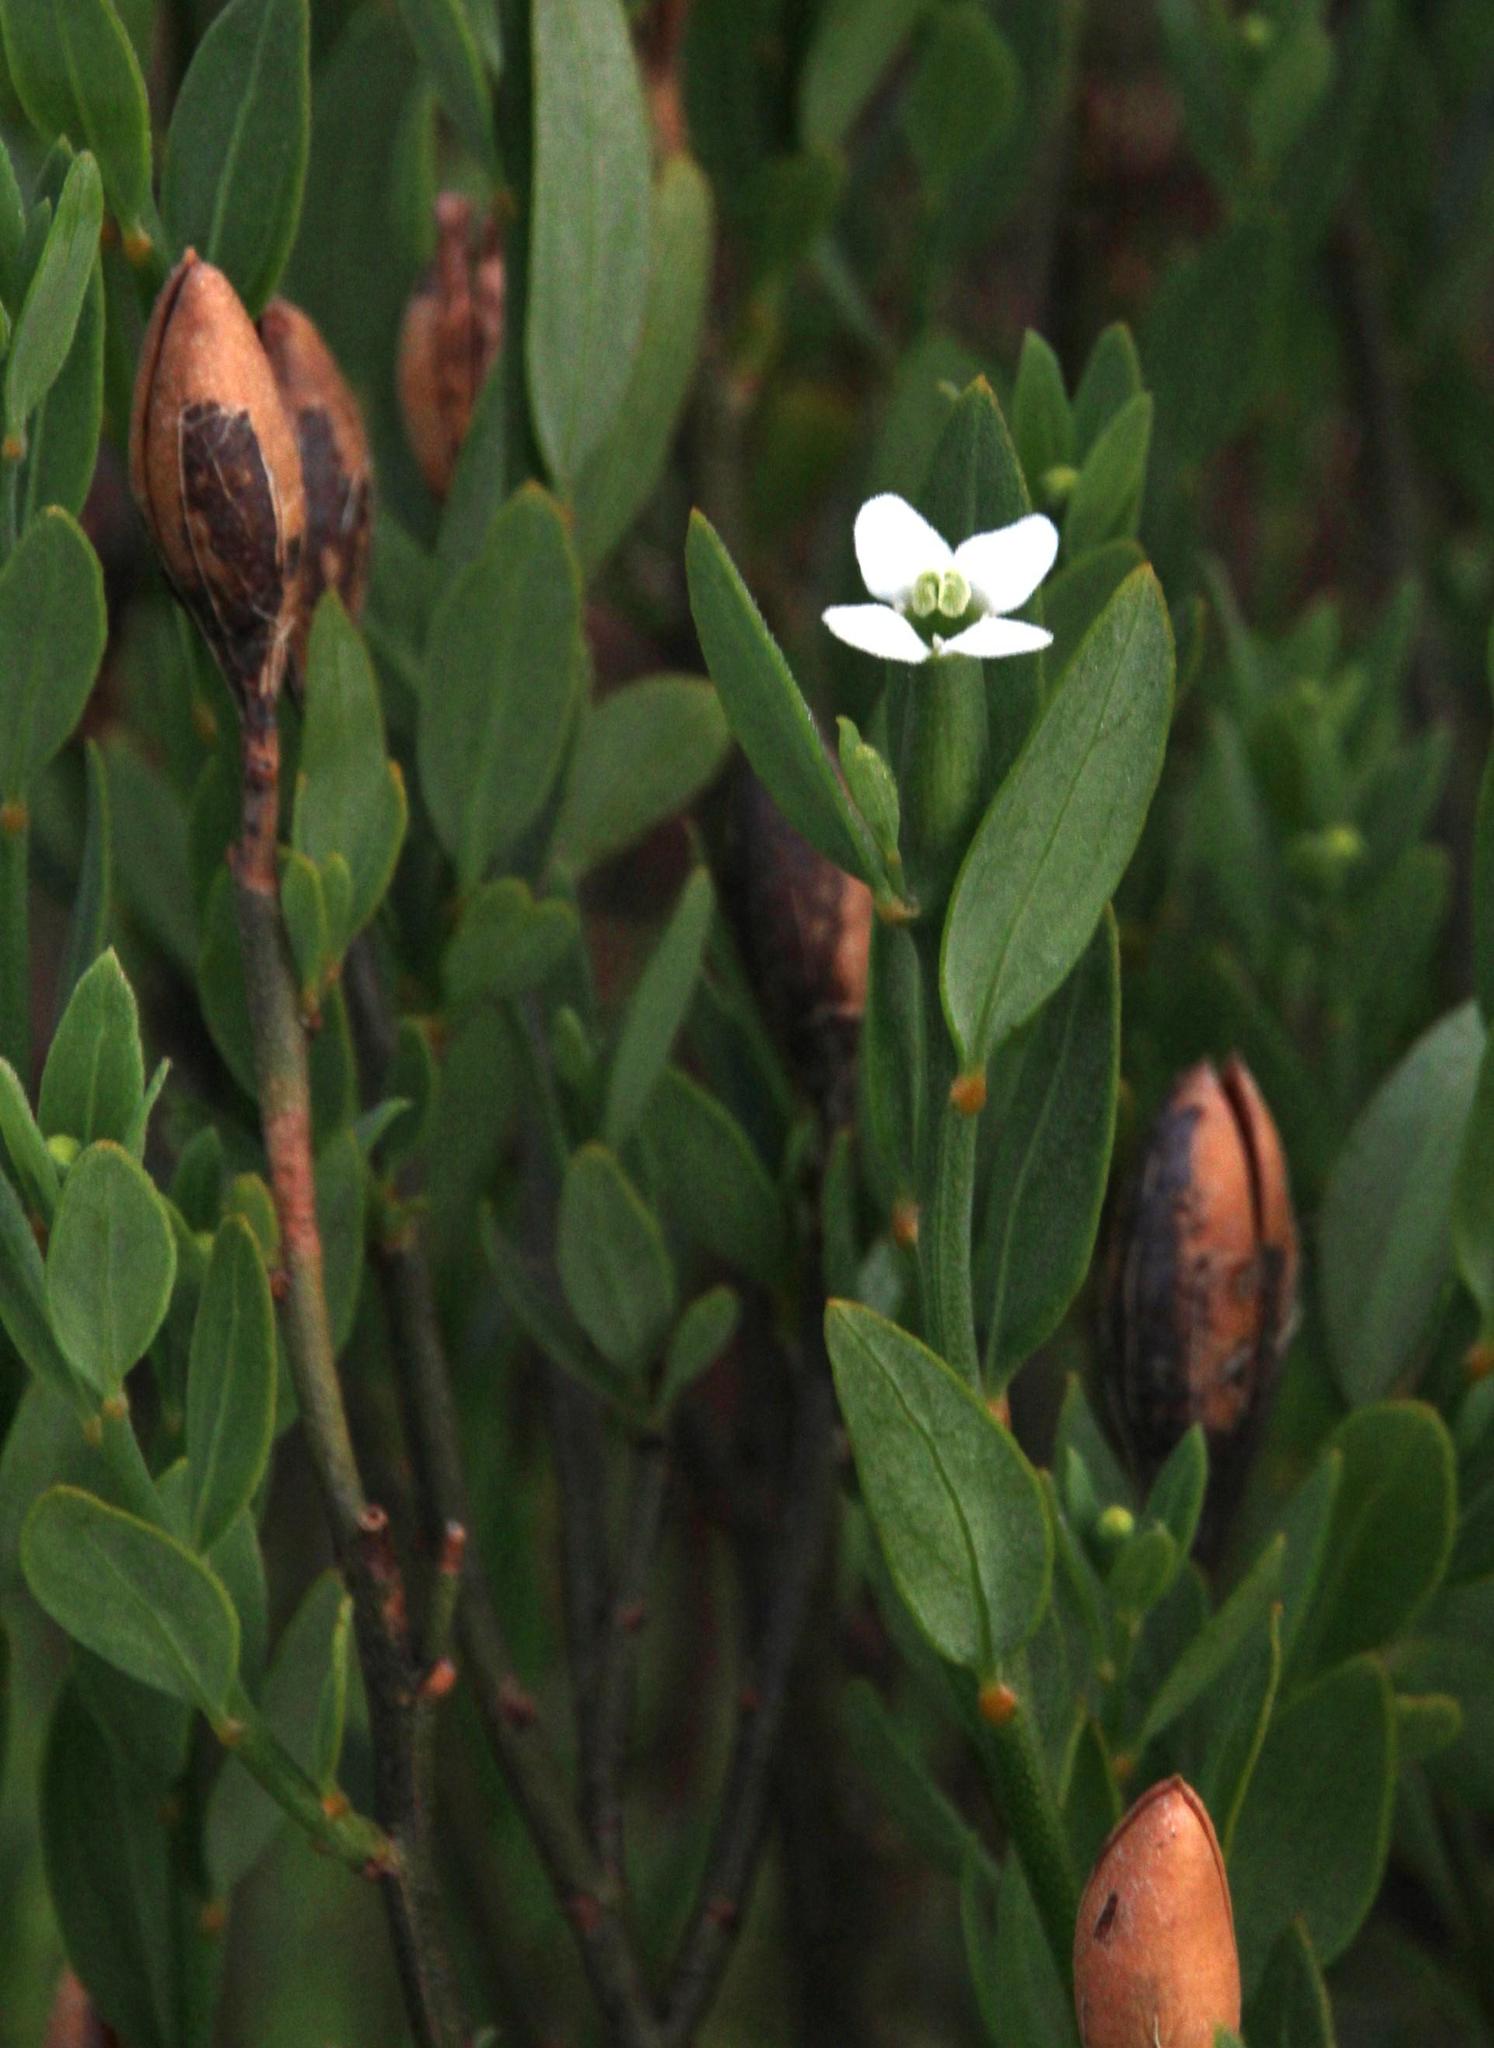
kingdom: Plantae
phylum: Tracheophyta
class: Magnoliopsida
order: Solanales
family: Montiniaceae
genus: Montinia
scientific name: Montinia caryophyllacea
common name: Wild clove-bush
